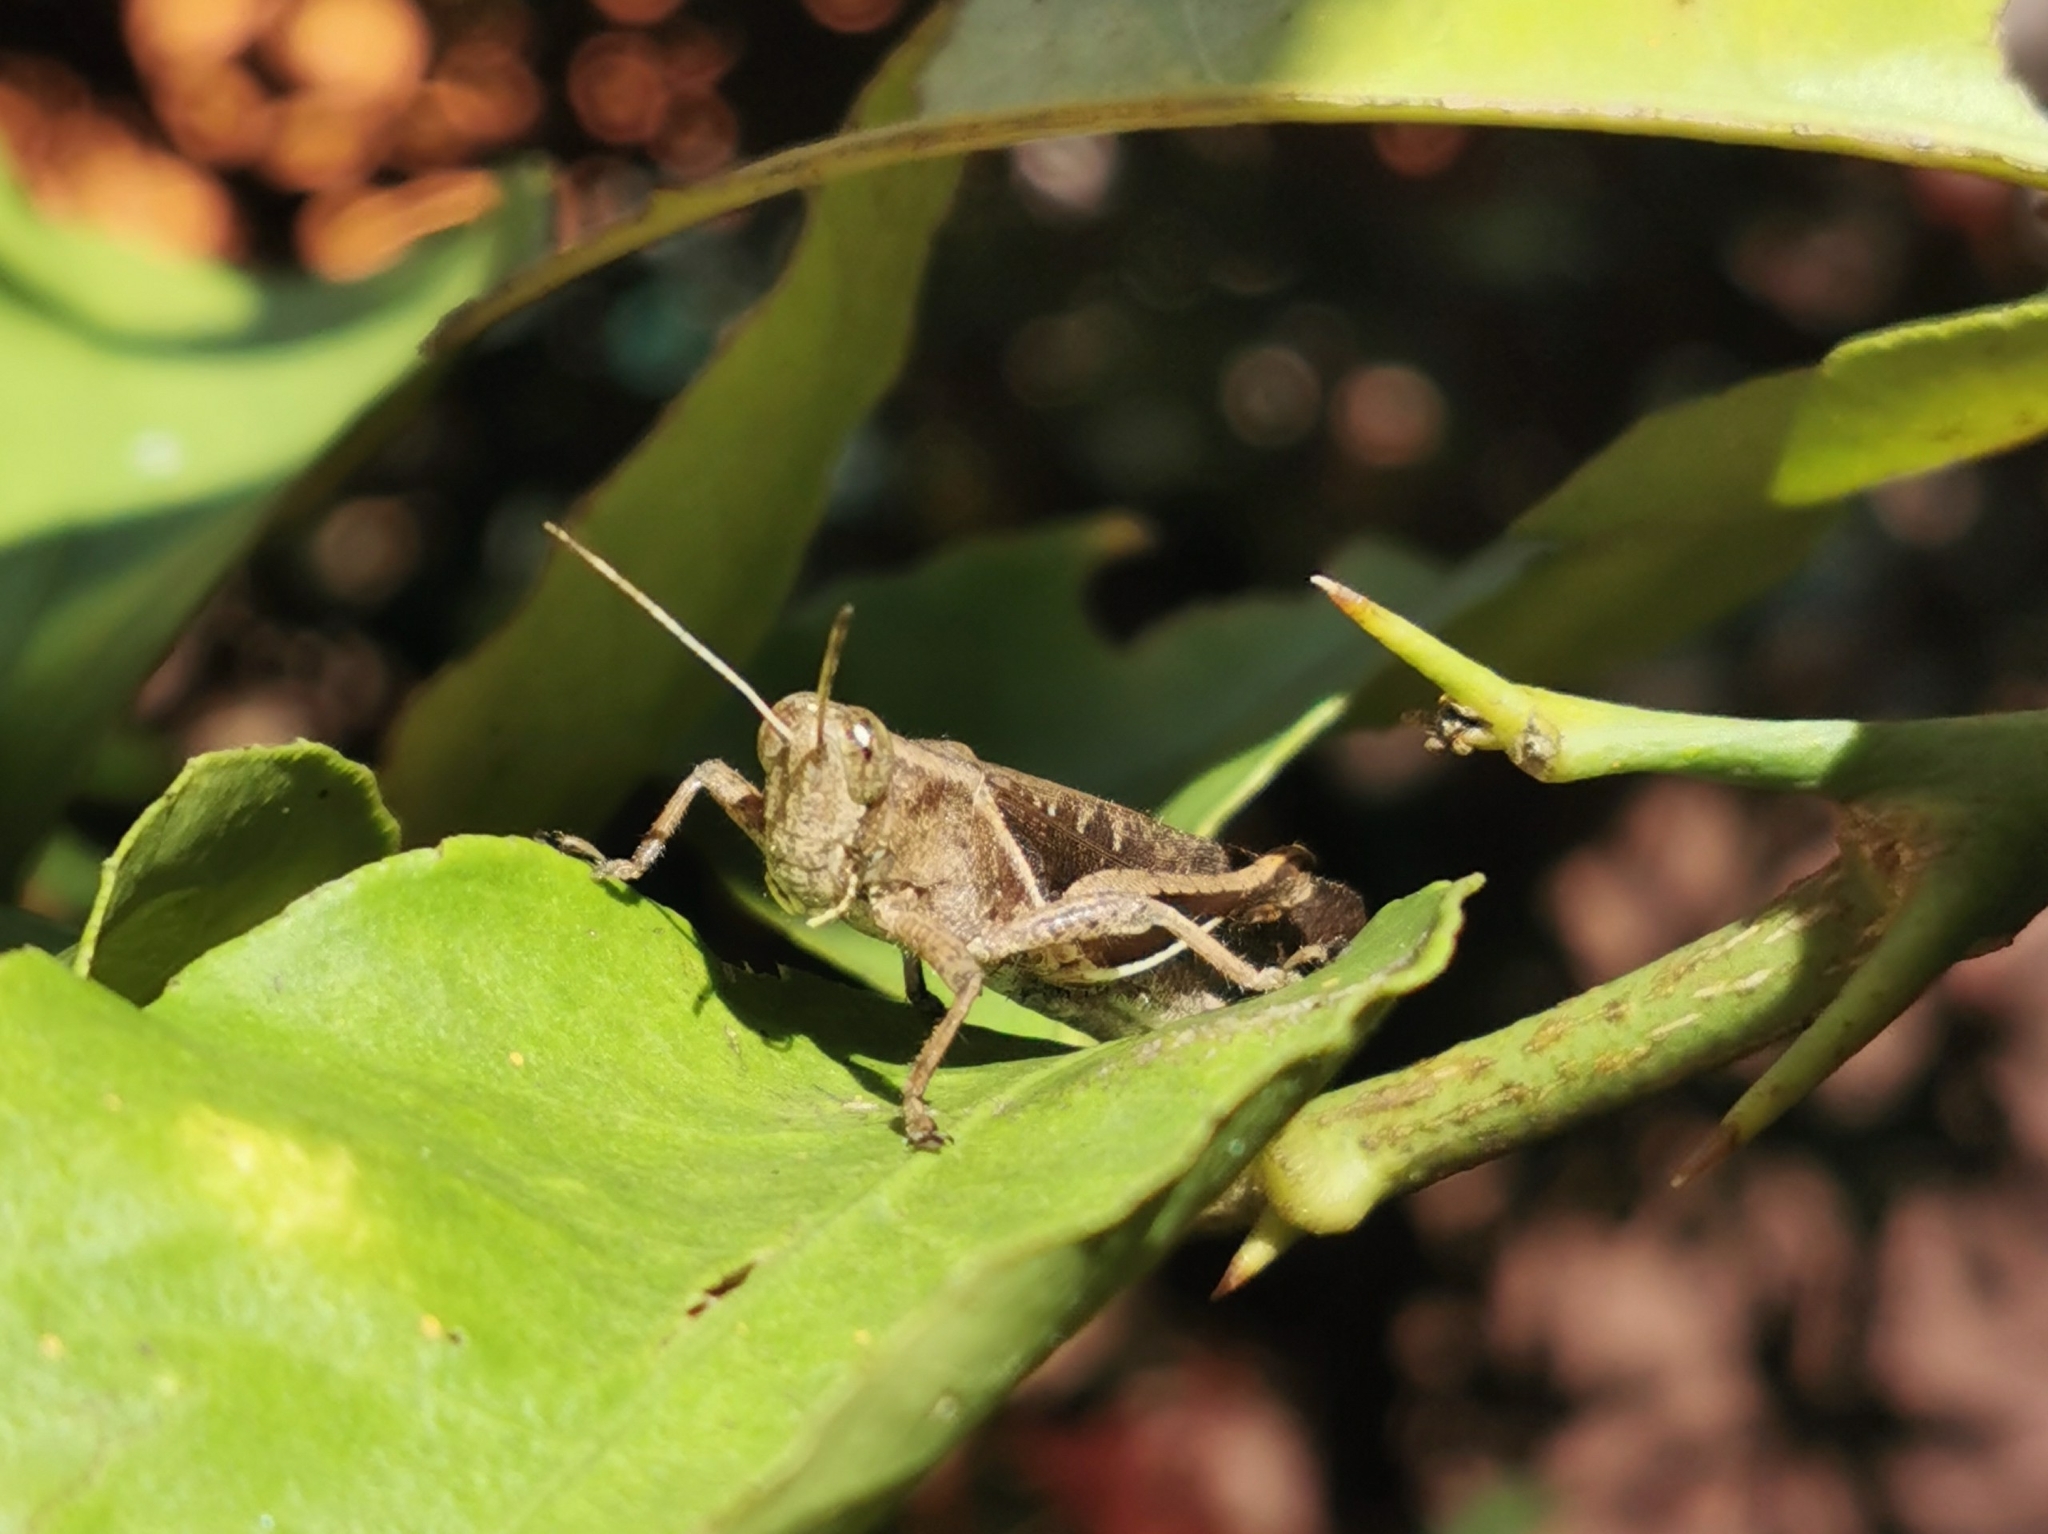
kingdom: Animalia
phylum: Arthropoda
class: Insecta
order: Orthoptera
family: Acrididae
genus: Abracris
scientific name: Abracris flavolineata
